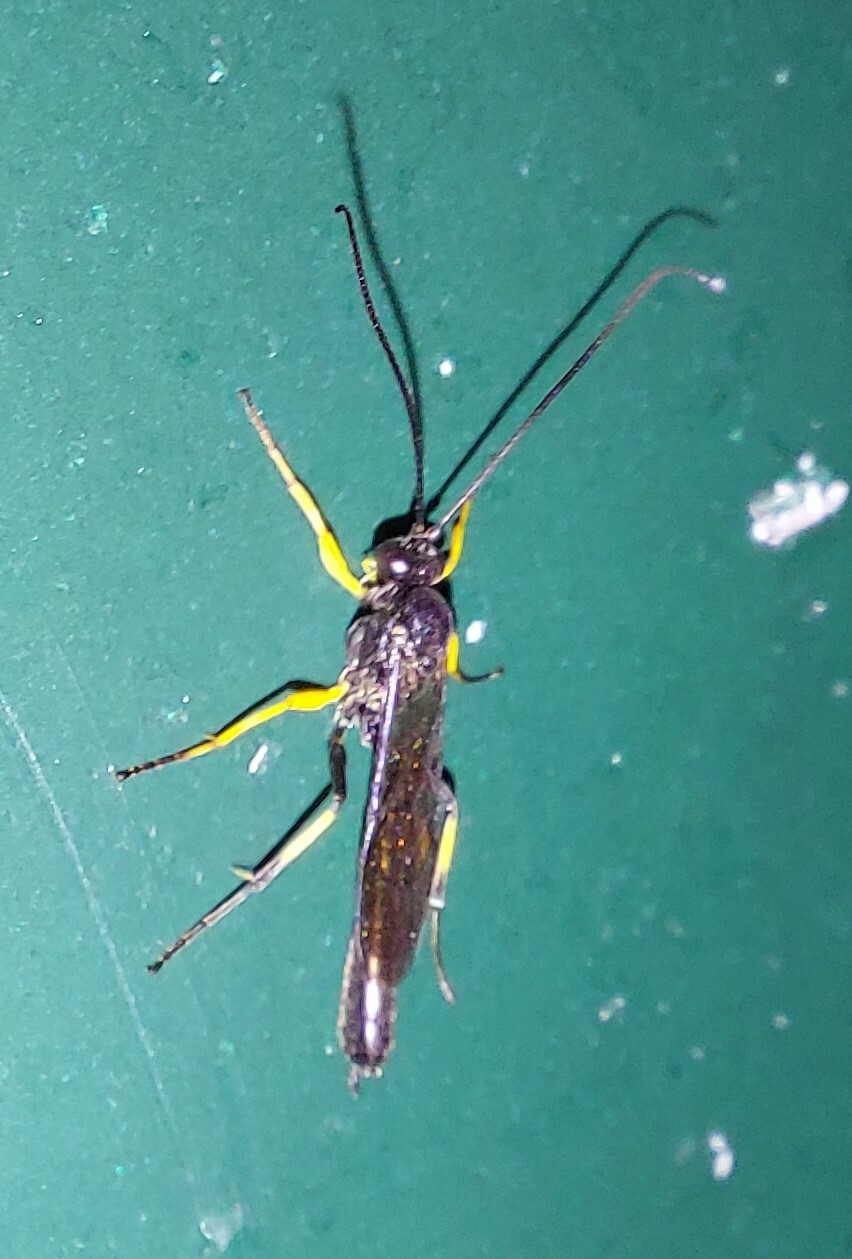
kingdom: Animalia
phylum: Arthropoda
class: Insecta
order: Hymenoptera
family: Ichneumonidae
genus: Dusona
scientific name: Dusona stramineipes
